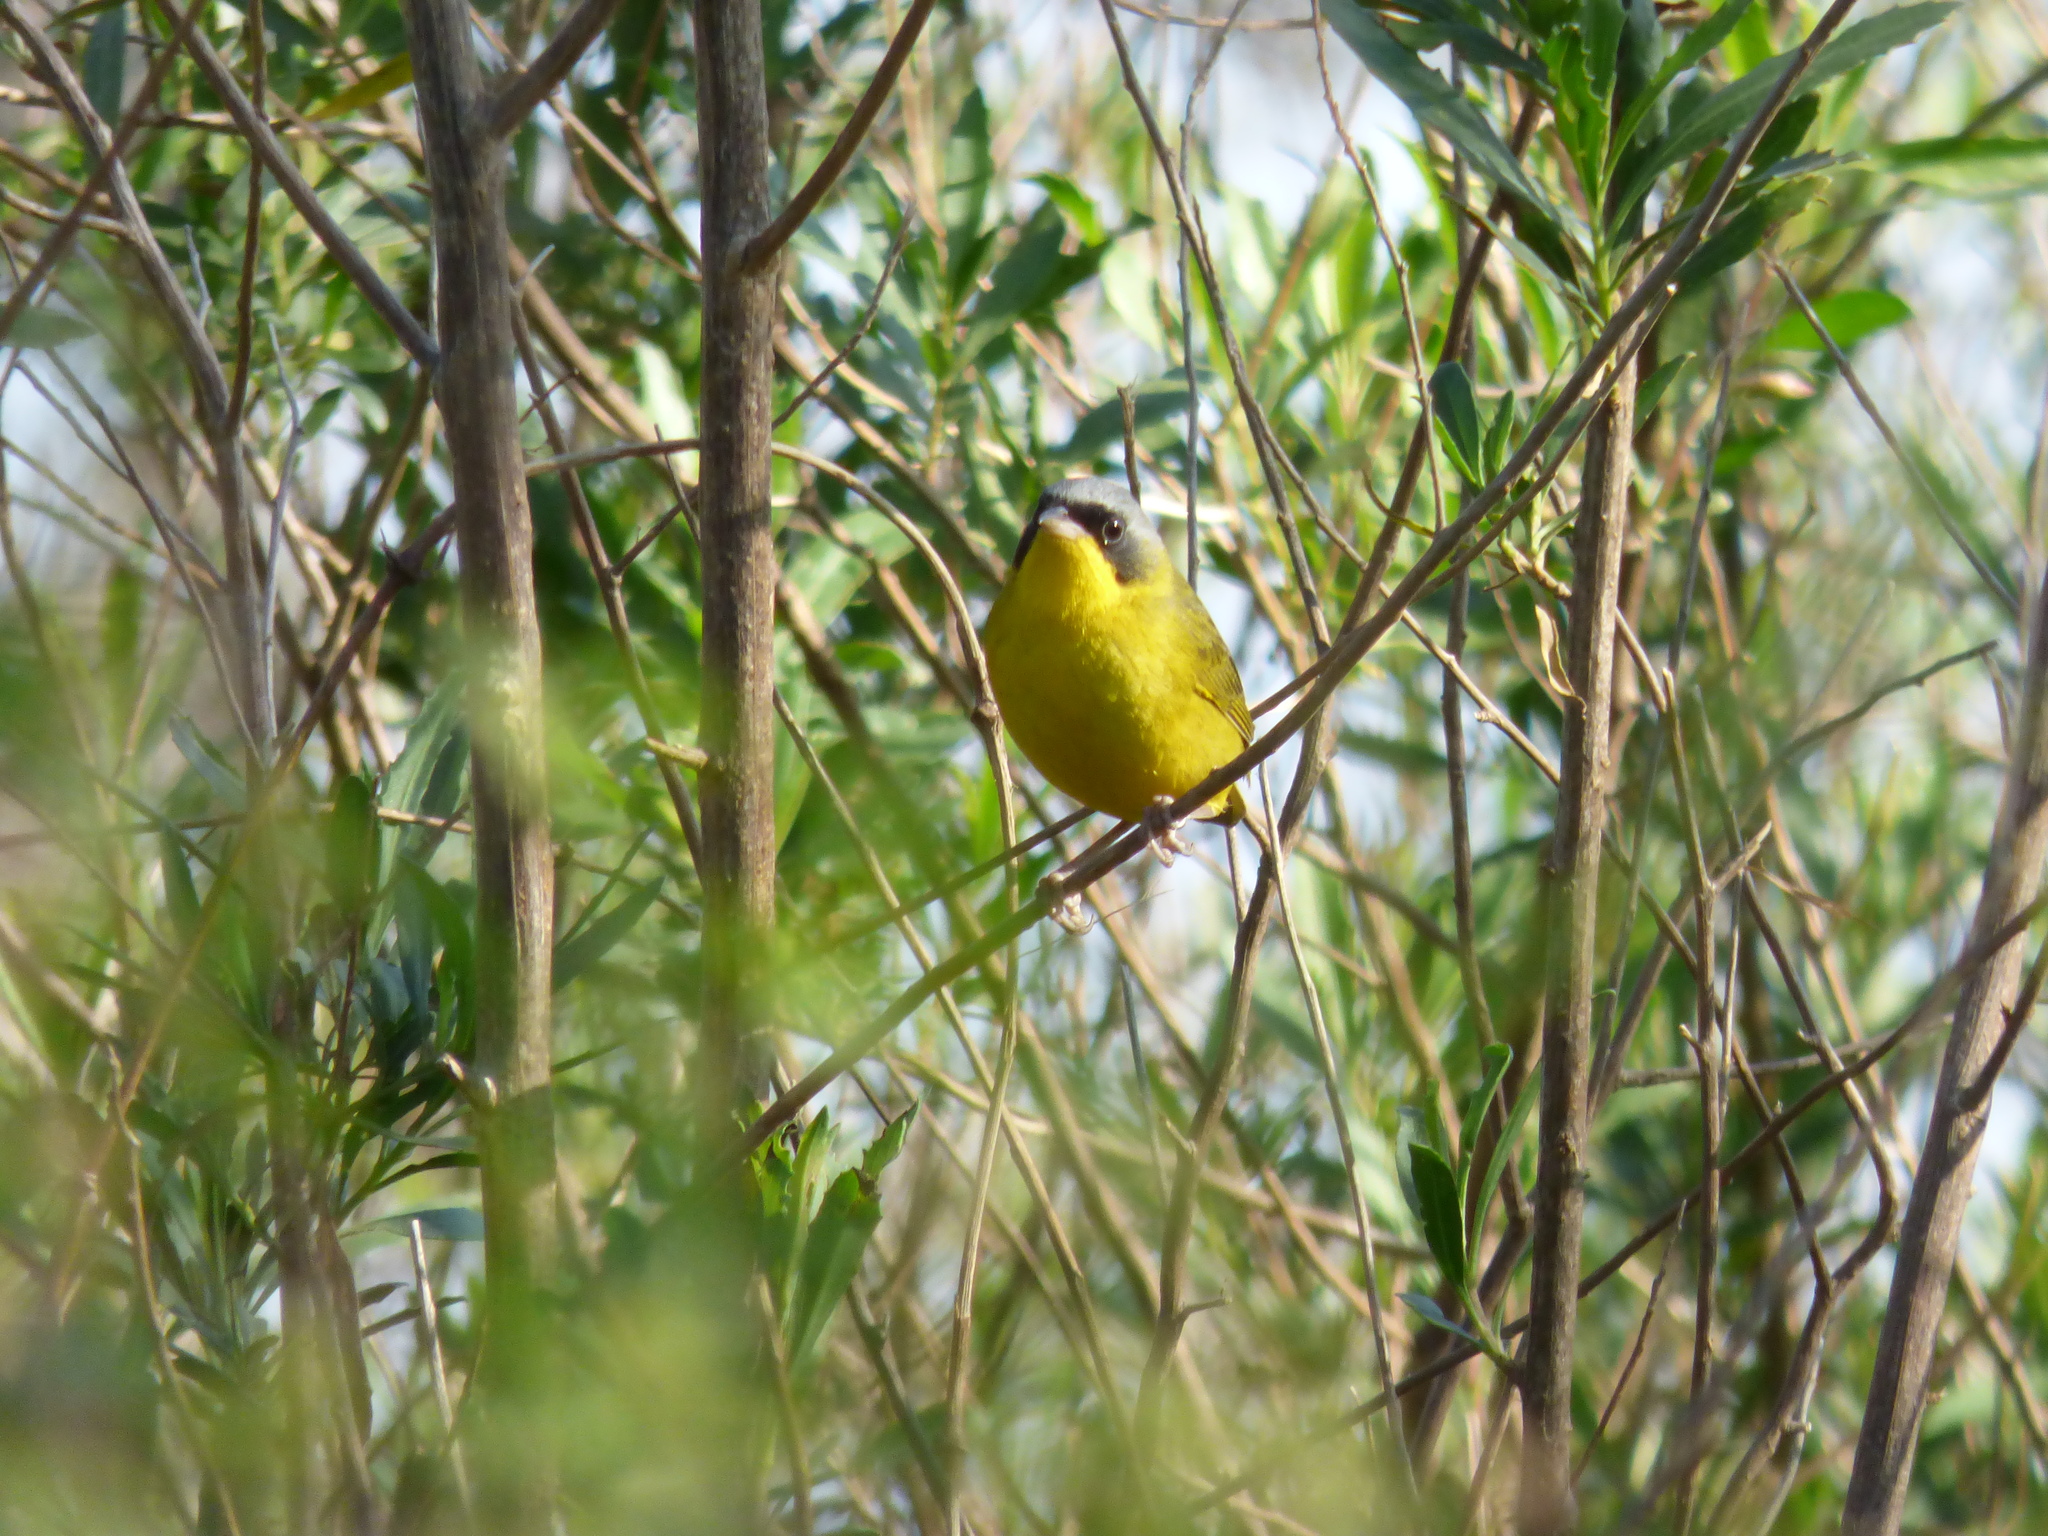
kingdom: Animalia
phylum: Chordata
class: Aves
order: Passeriformes
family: Parulidae
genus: Geothlypis
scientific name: Geothlypis velata
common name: Southern yellowthroat
